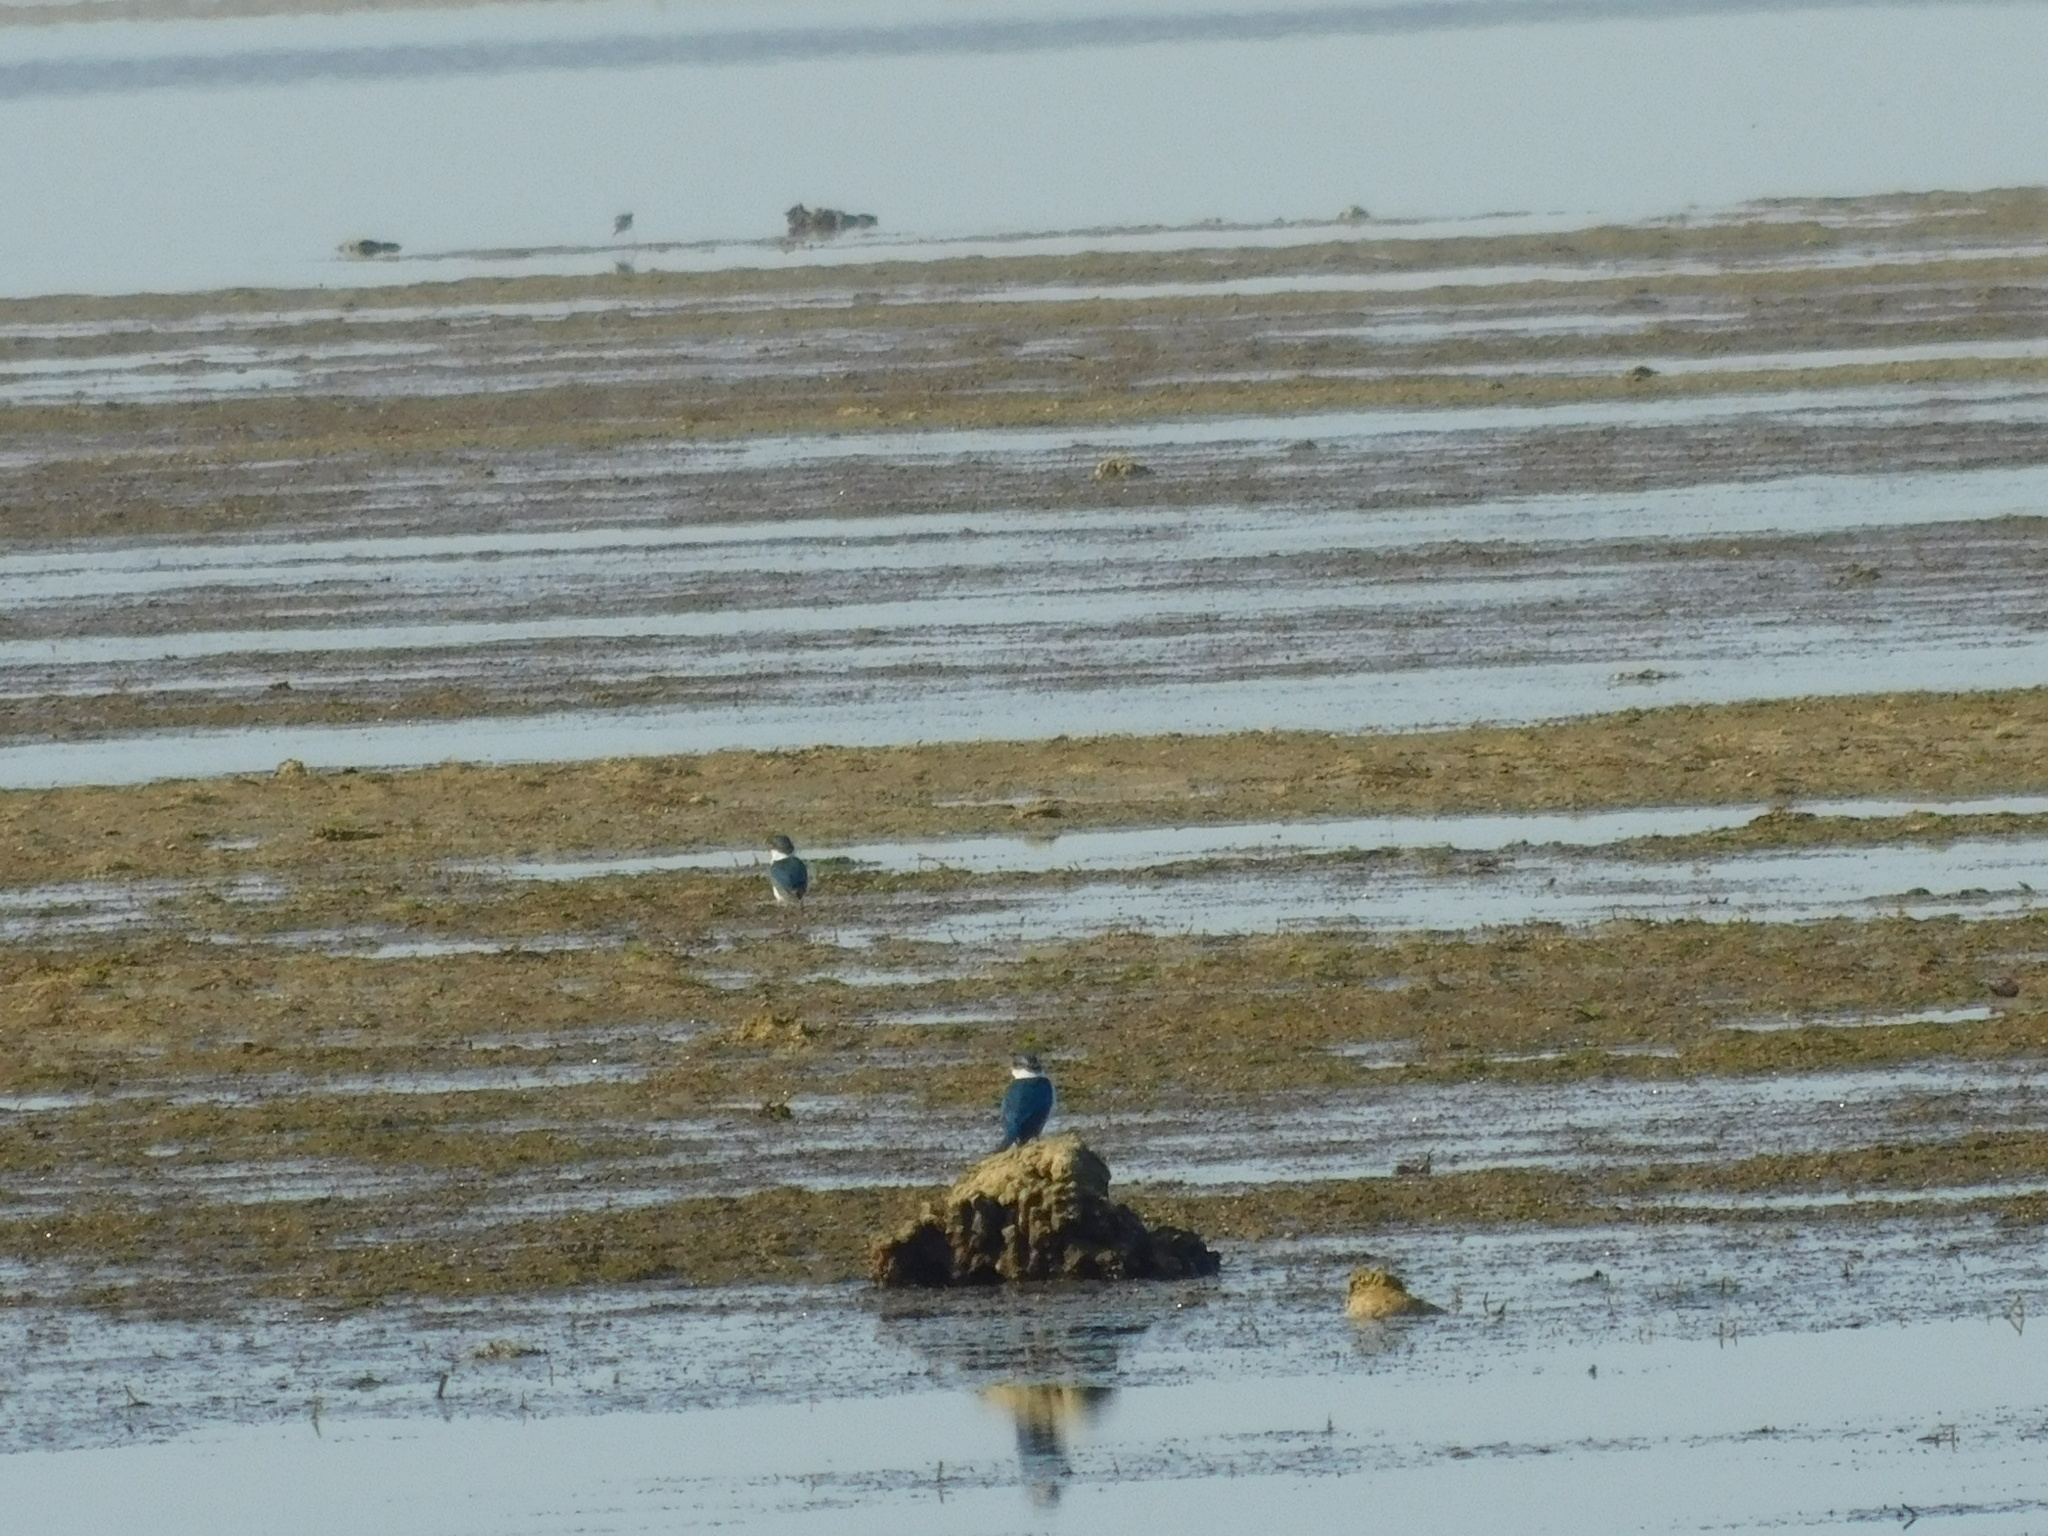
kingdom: Animalia
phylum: Chordata
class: Aves
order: Coraciiformes
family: Alcedinidae
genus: Todiramphus
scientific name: Todiramphus chloris
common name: Collared kingfisher
